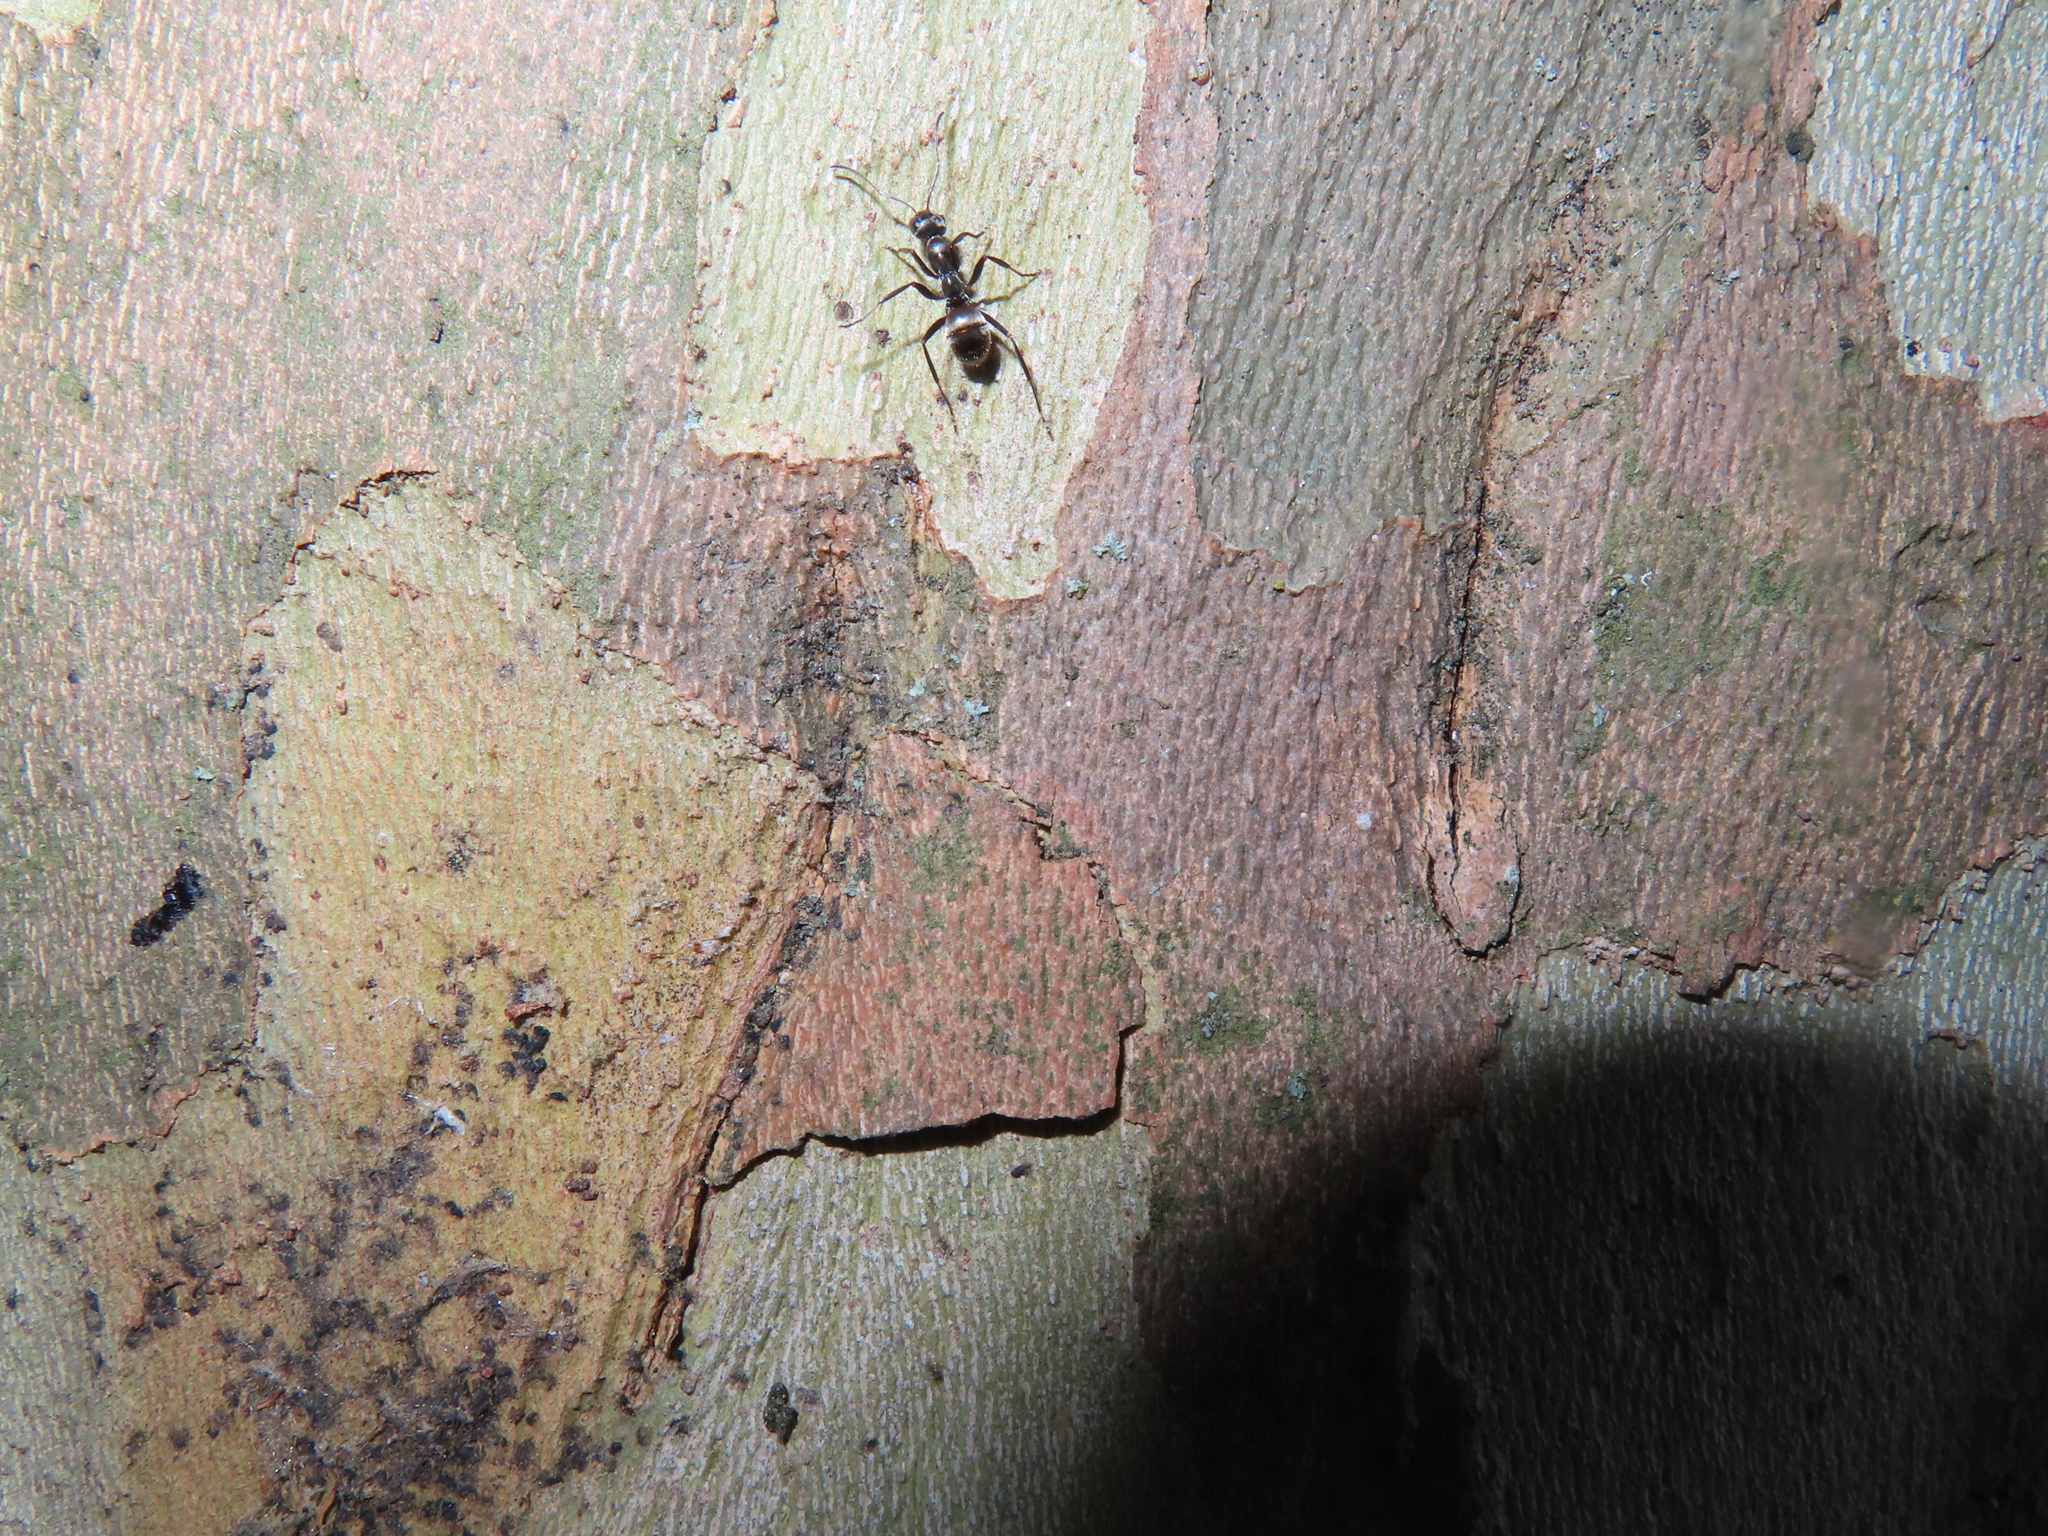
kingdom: Animalia
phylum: Arthropoda
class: Insecta
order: Hymenoptera
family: Formicidae
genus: Formica
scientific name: Formica
